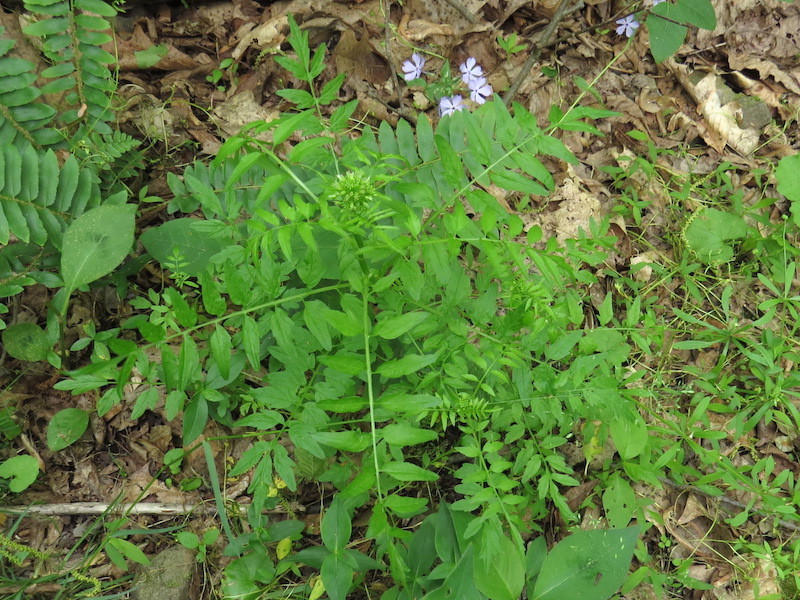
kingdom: Plantae
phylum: Tracheophyta
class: Magnoliopsida
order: Brassicales
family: Brassicaceae
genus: Cardamine
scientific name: Cardamine impatiens
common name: Narrow-leaved bitter-cress
